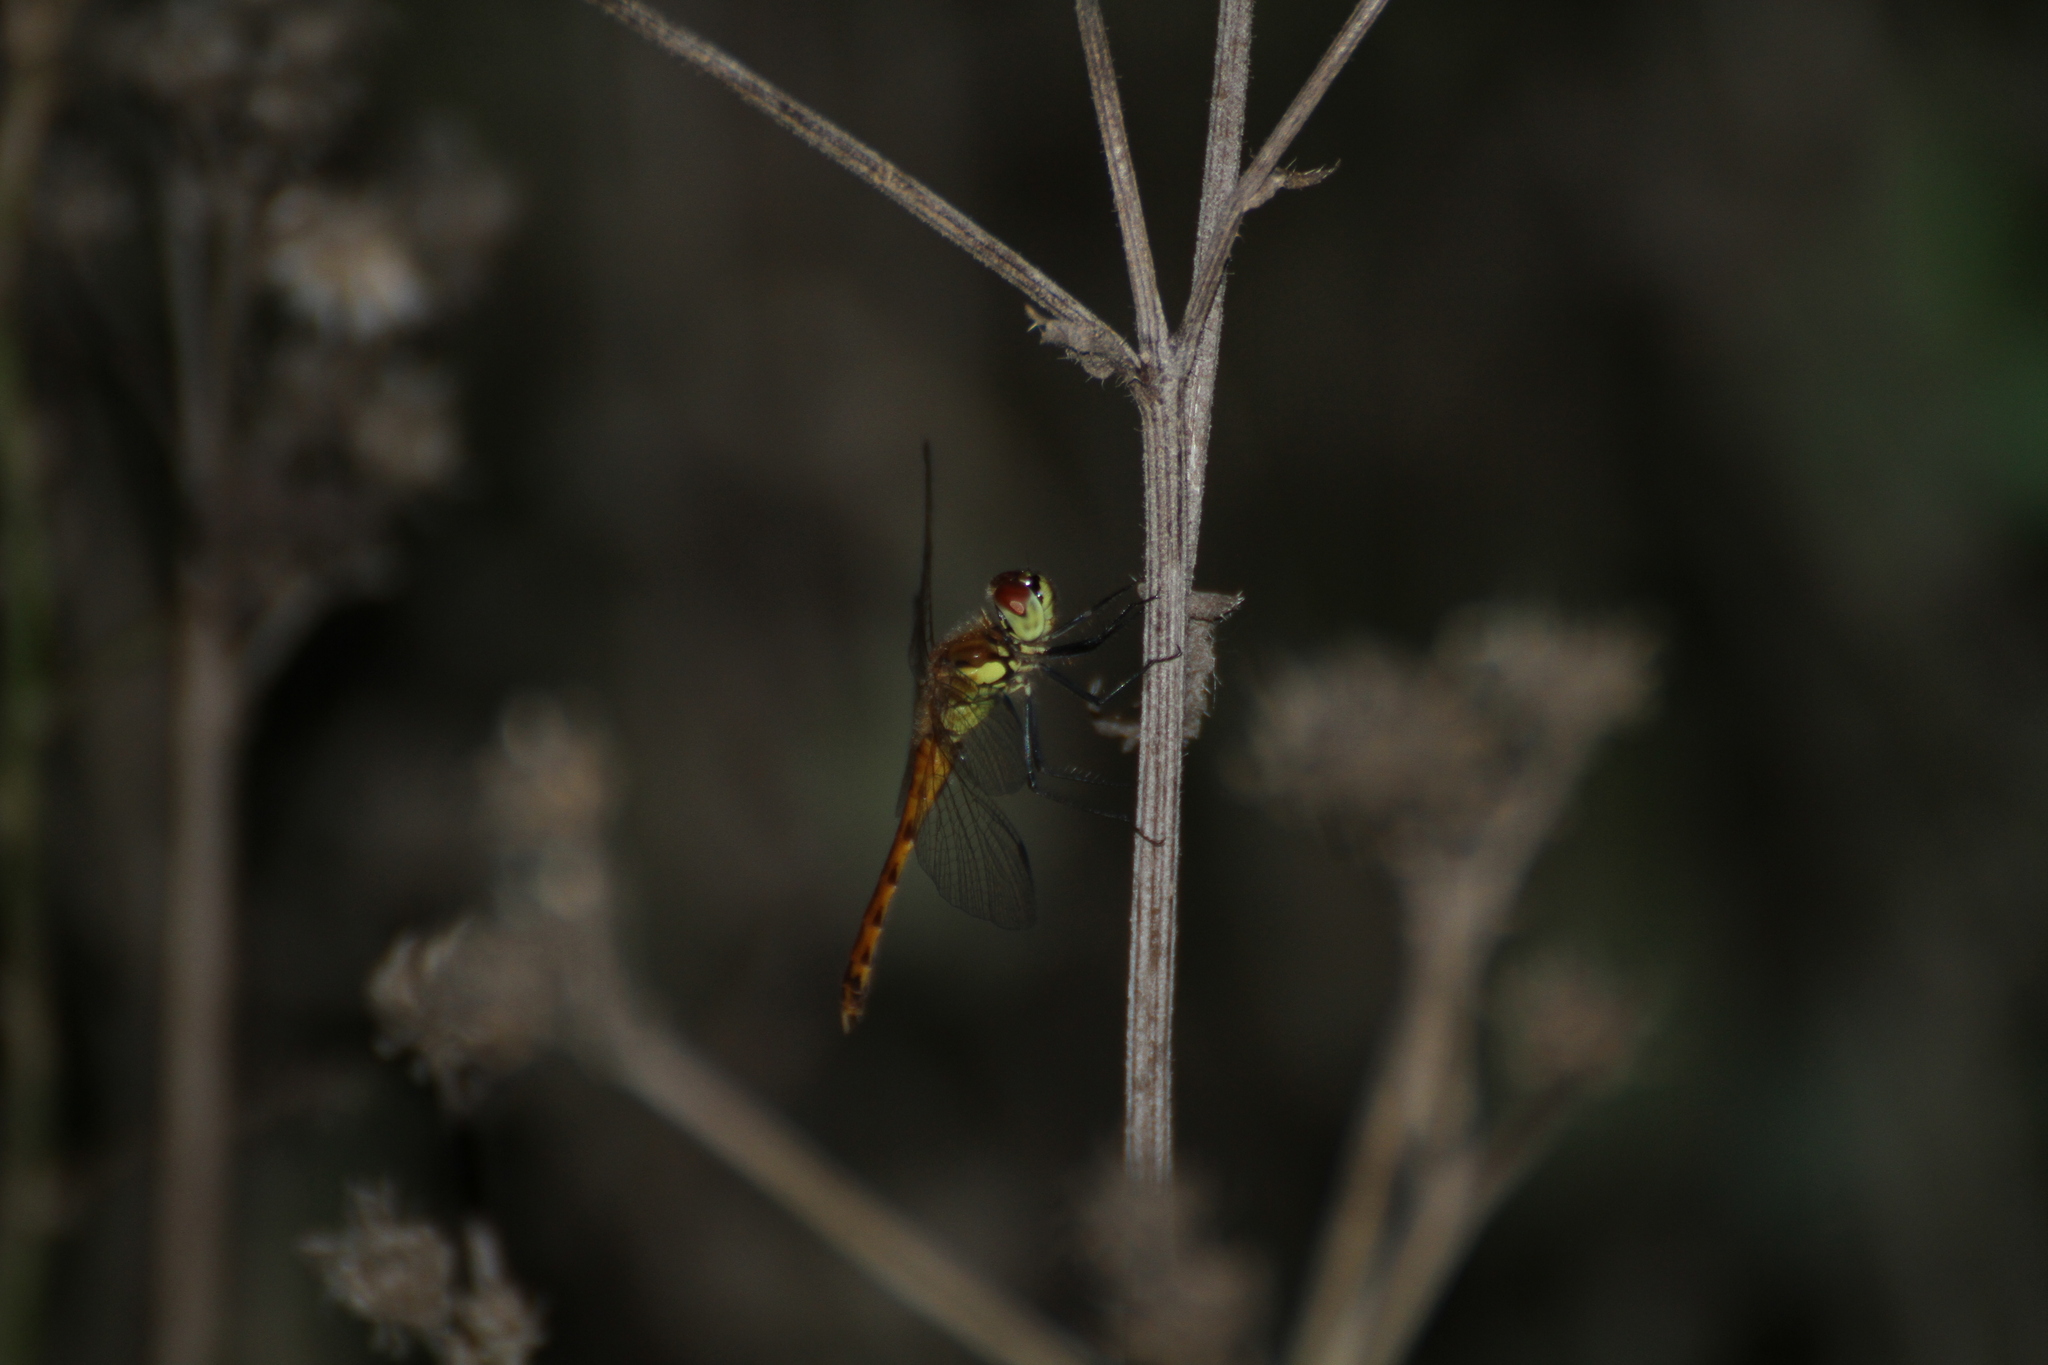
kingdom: Animalia
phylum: Arthropoda
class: Insecta
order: Odonata
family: Libellulidae
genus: Sympetrum
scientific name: Sympetrum depressiusculum
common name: Spotted darter
